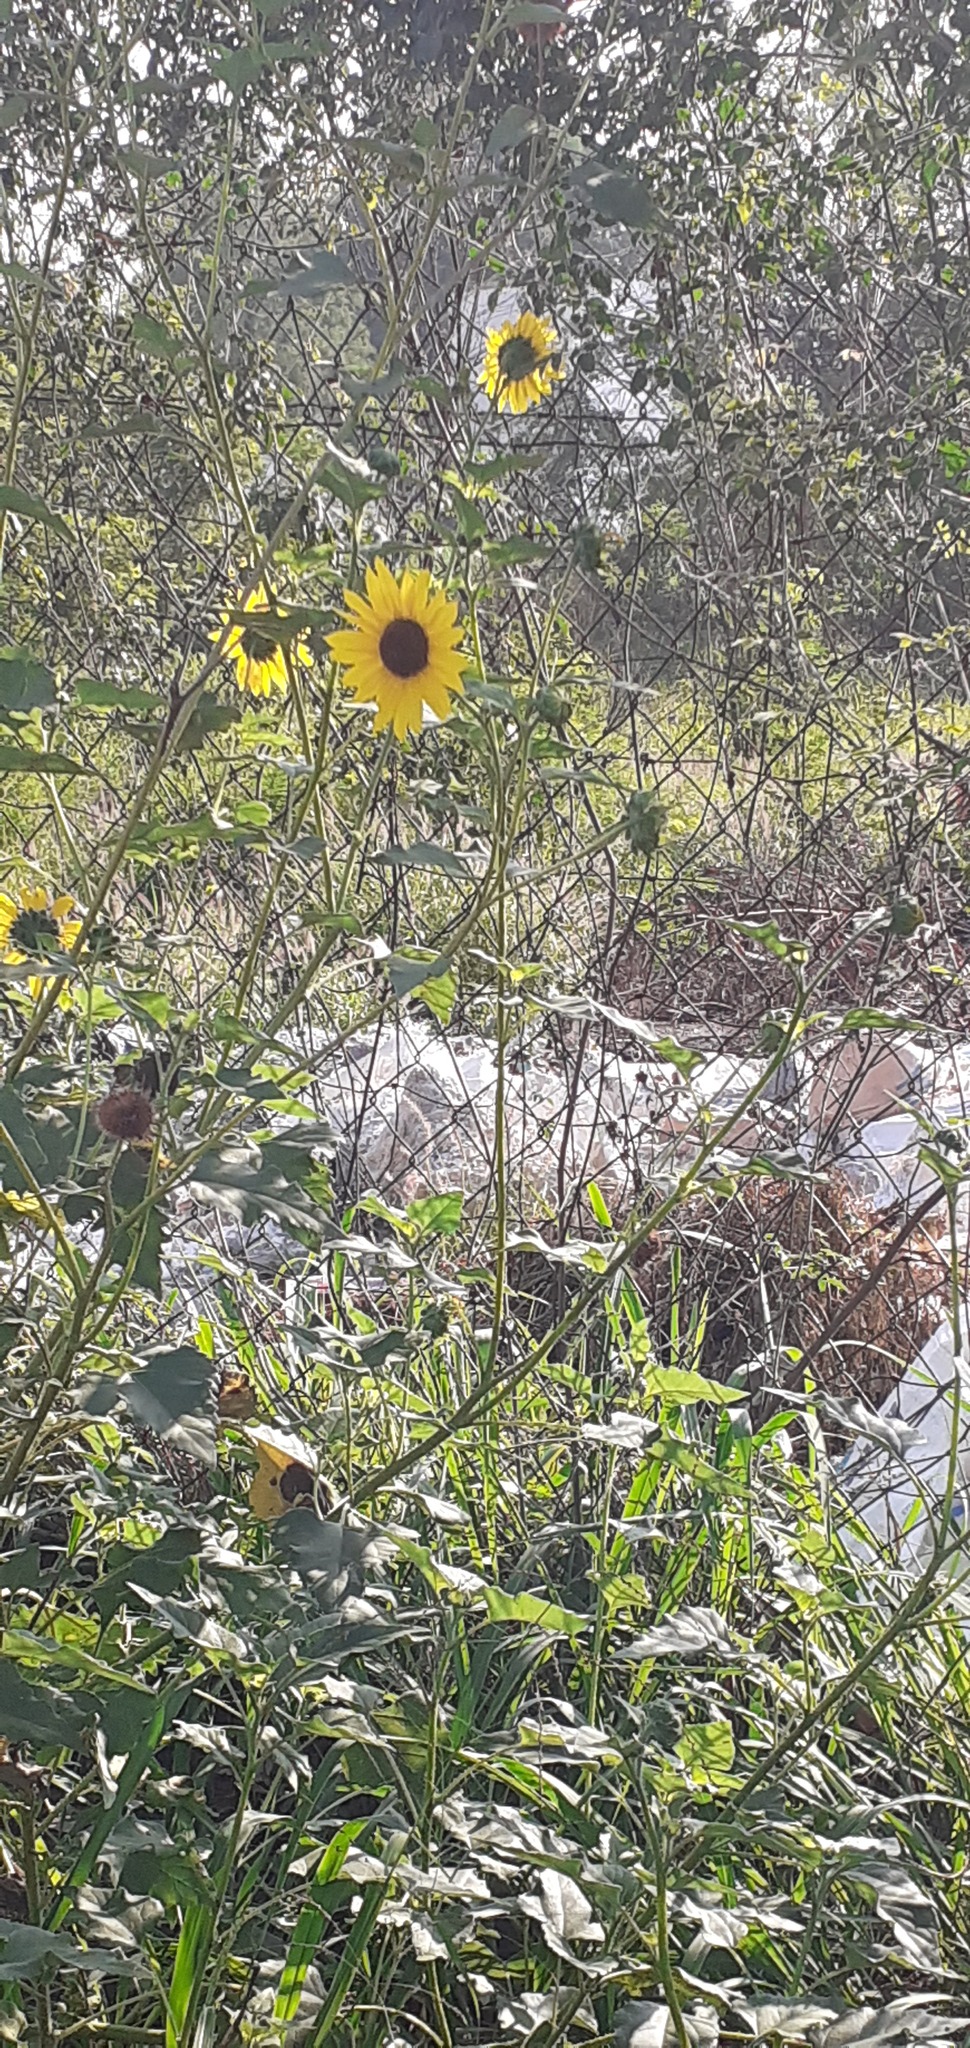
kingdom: Plantae
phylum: Tracheophyta
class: Magnoliopsida
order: Asterales
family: Asteraceae
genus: Helianthus
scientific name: Helianthus annuus
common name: Sunflower
